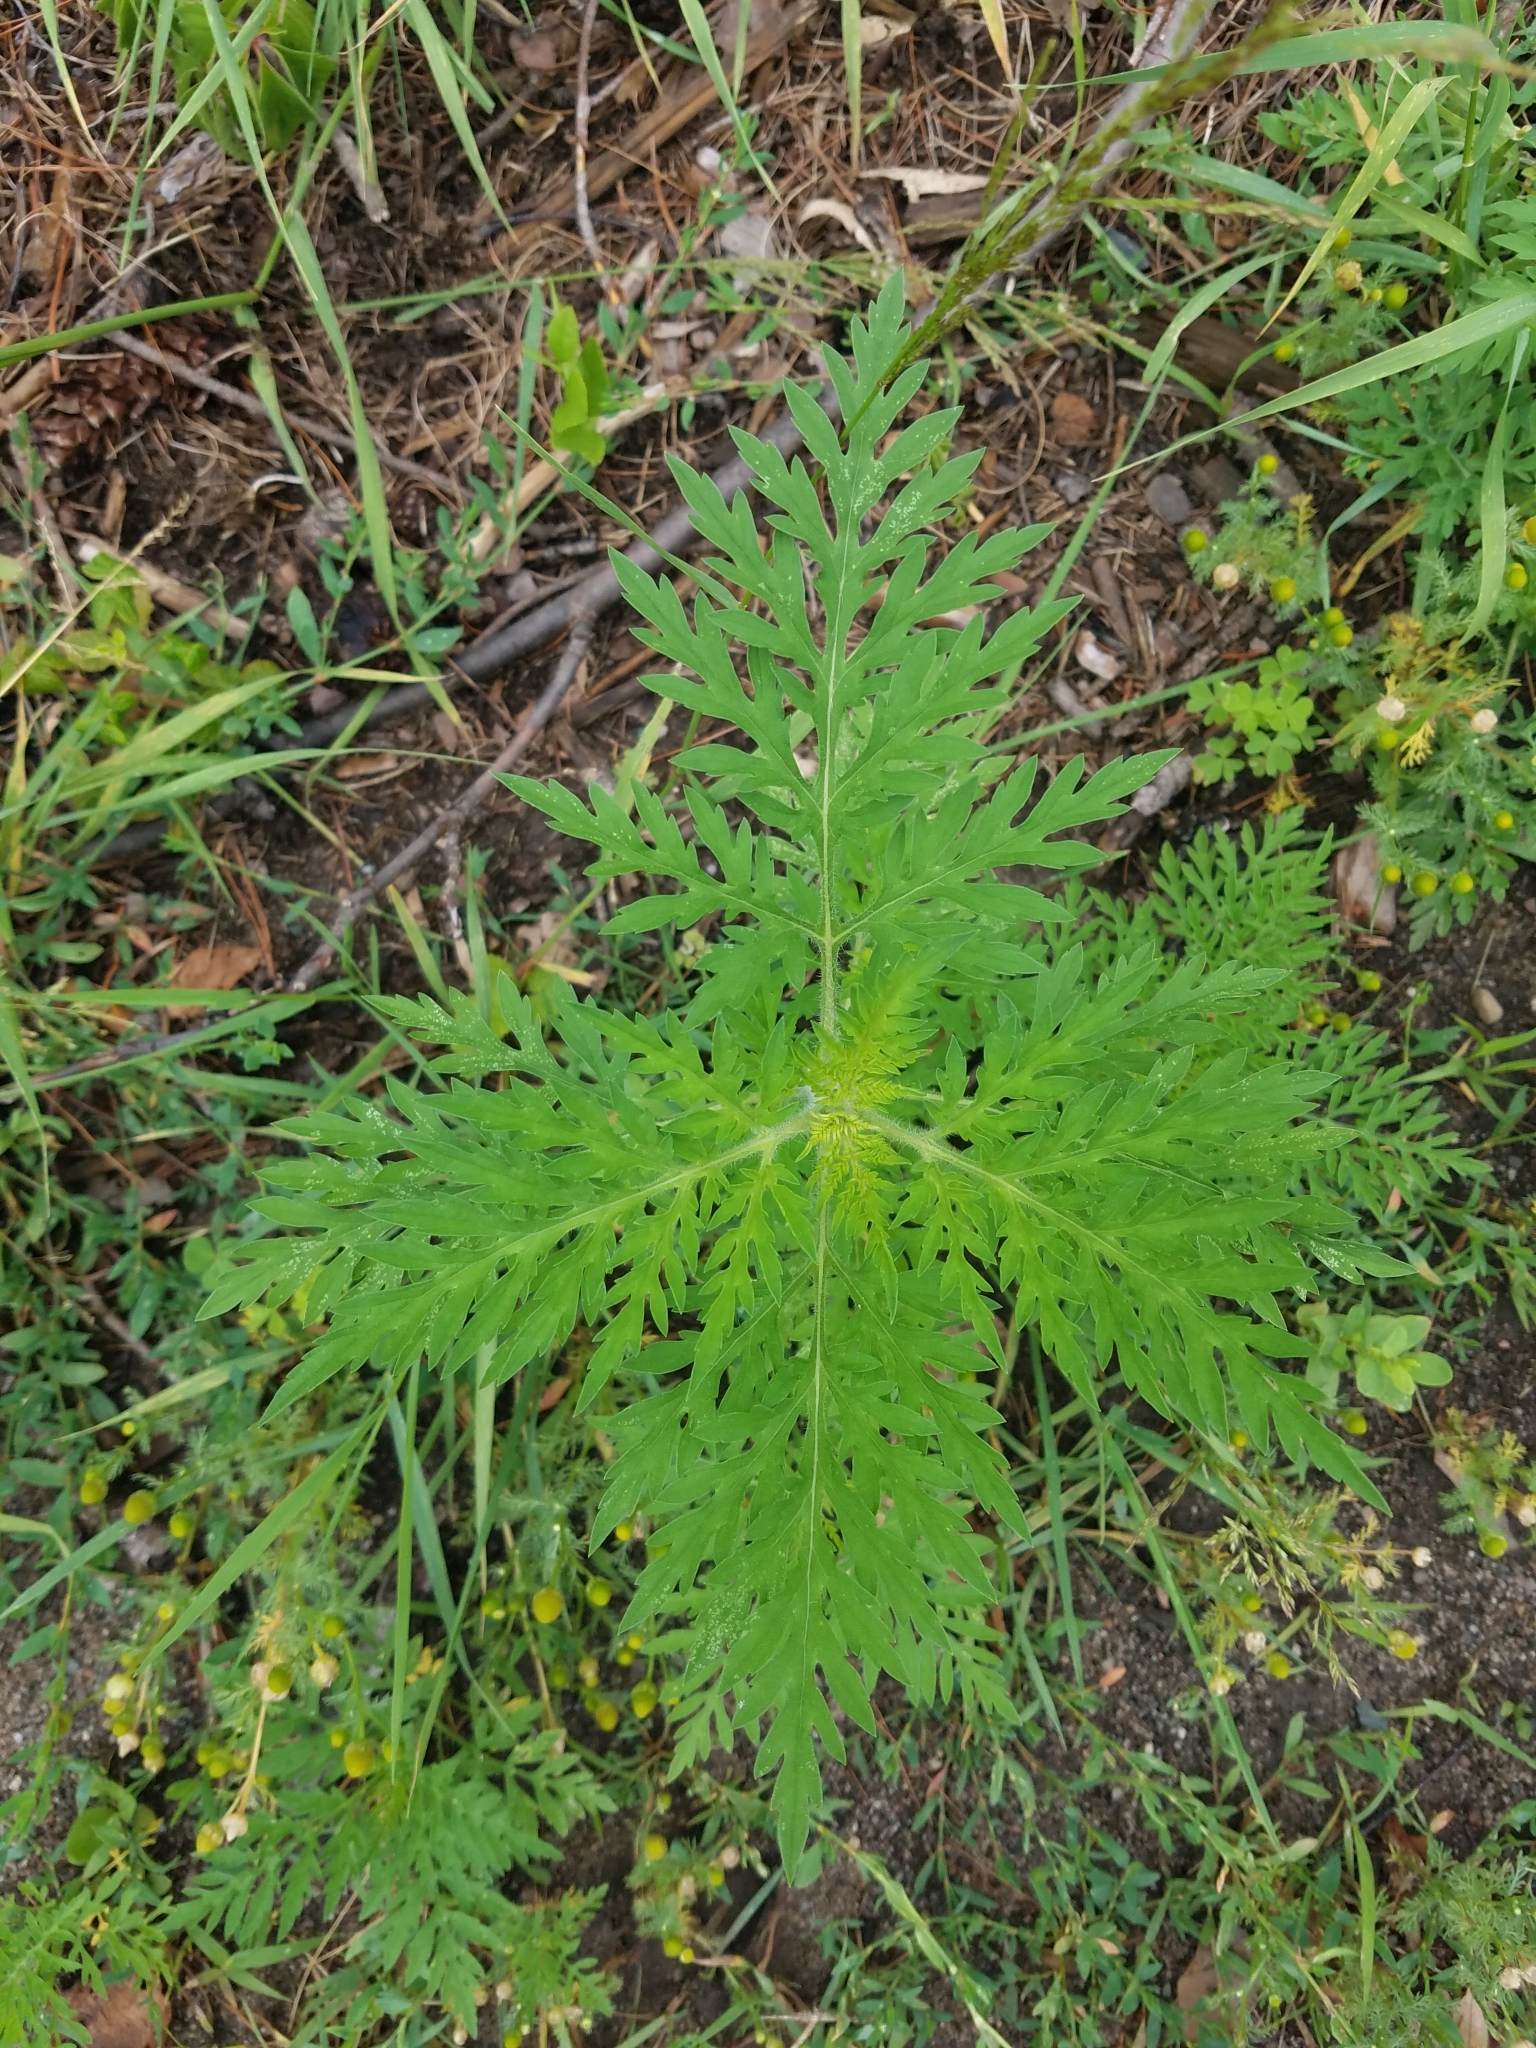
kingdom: Plantae
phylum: Tracheophyta
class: Magnoliopsida
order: Asterales
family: Asteraceae
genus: Ambrosia
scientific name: Ambrosia artemisiifolia
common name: Annual ragweed
